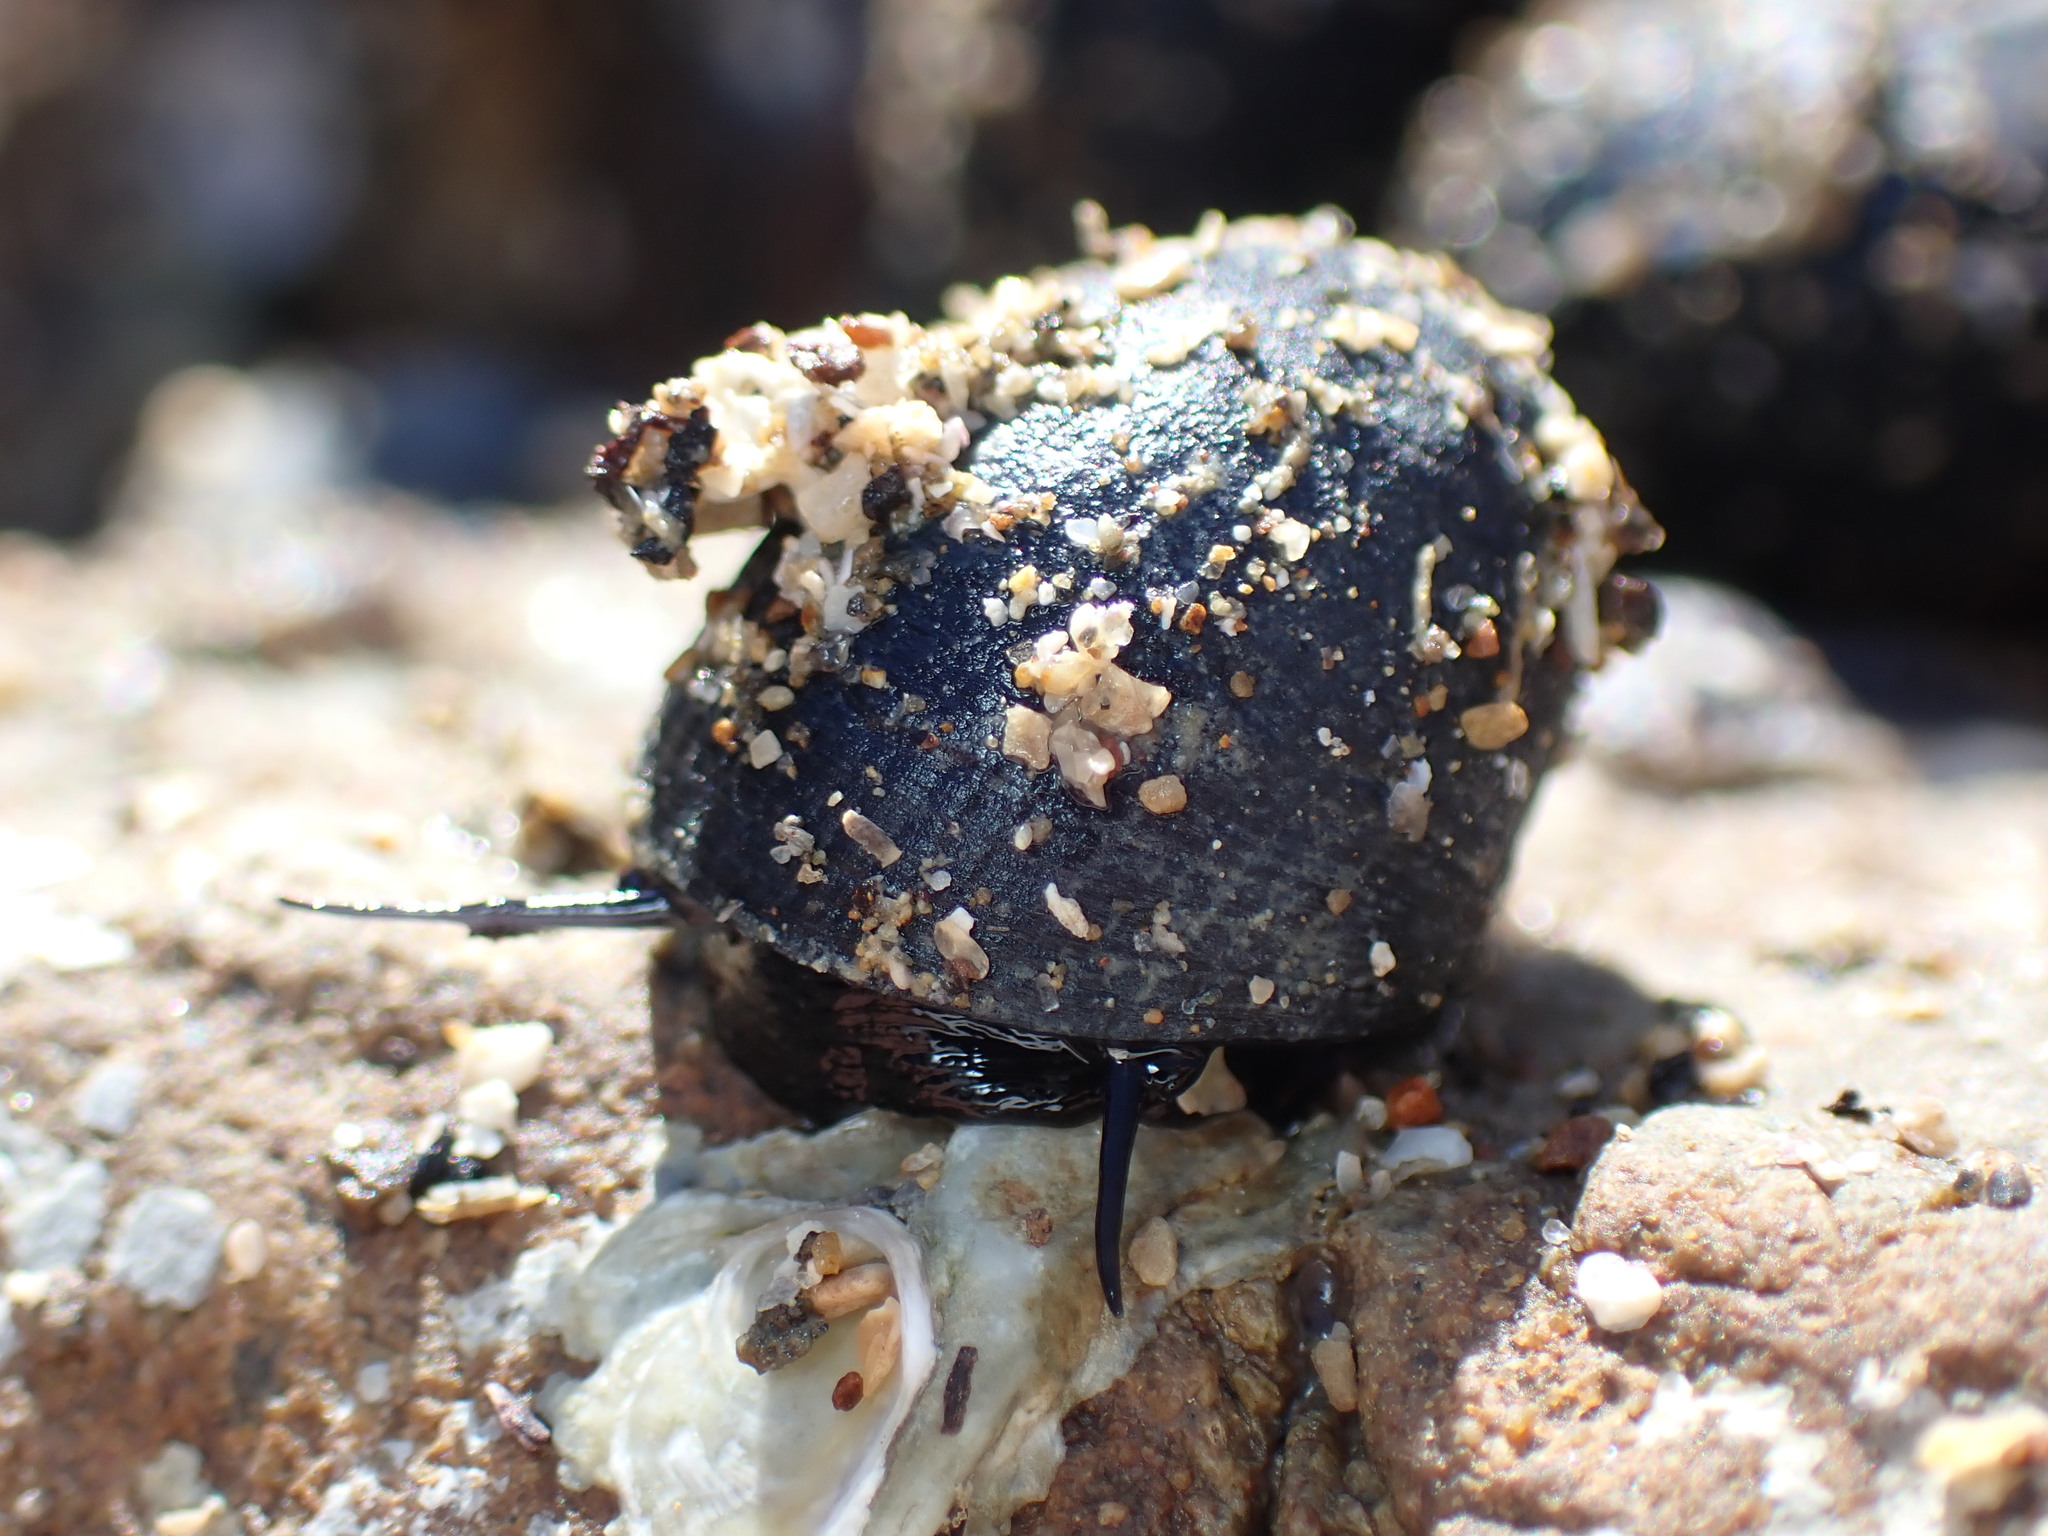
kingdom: Animalia
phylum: Mollusca
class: Gastropoda
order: Cycloneritida
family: Neritidae
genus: Nerita
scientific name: Nerita melanotragus
